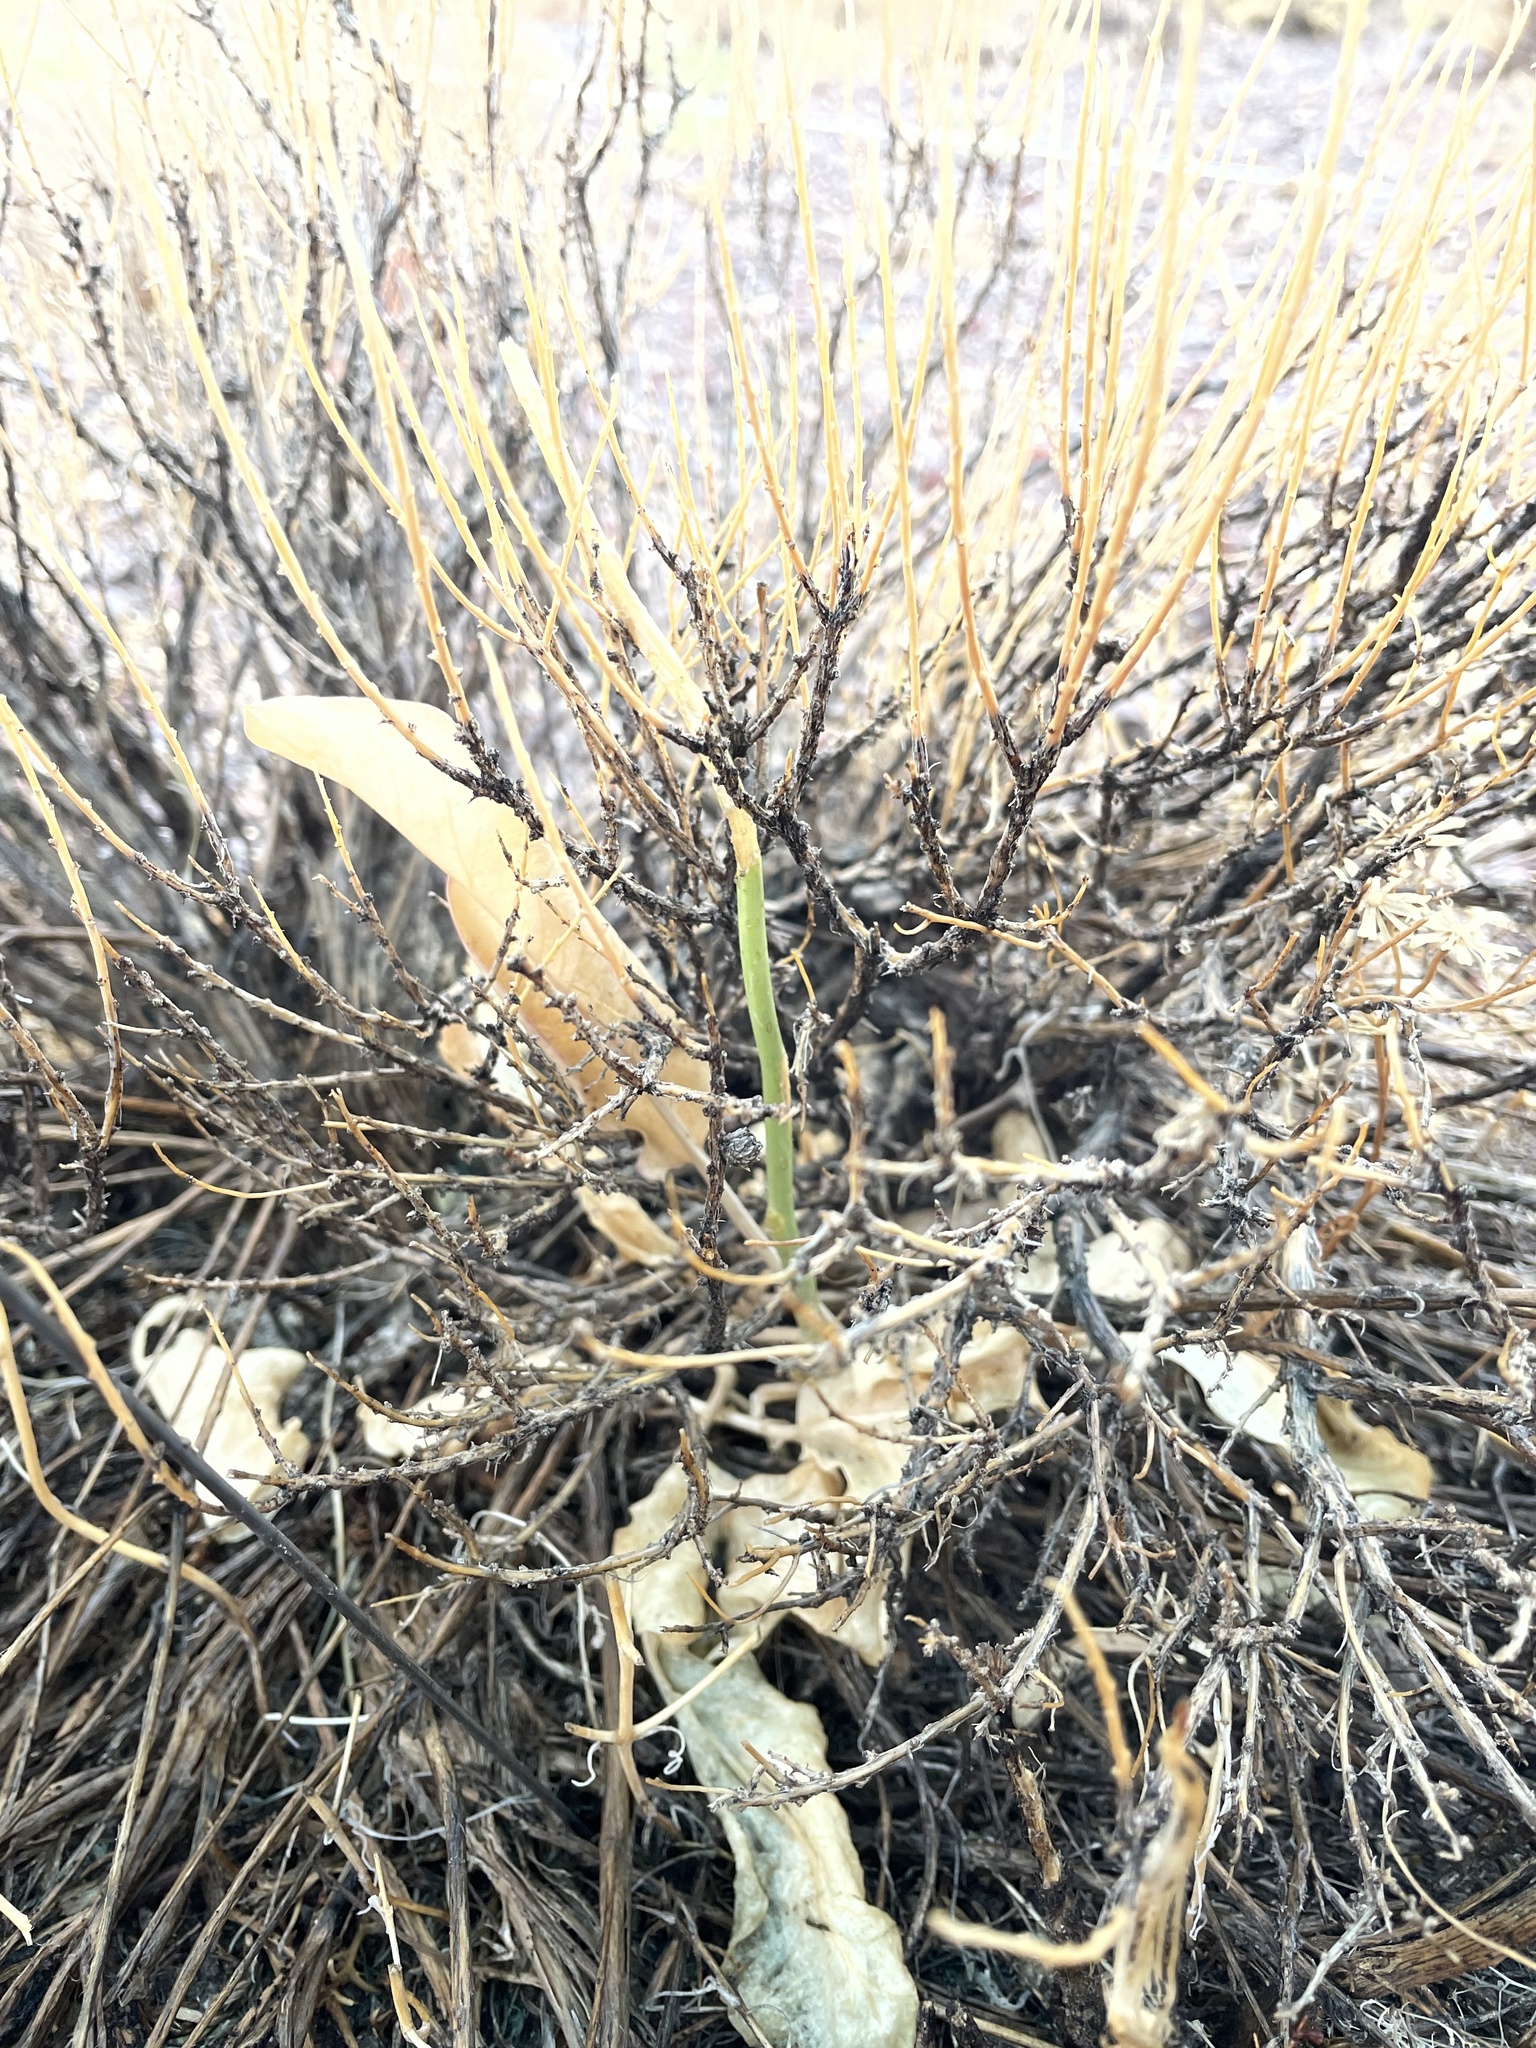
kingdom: Plantae
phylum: Tracheophyta
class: Magnoliopsida
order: Brassicales
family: Brassicaceae
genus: Stanleya
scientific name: Stanleya elata
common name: Panamint prince's plume
